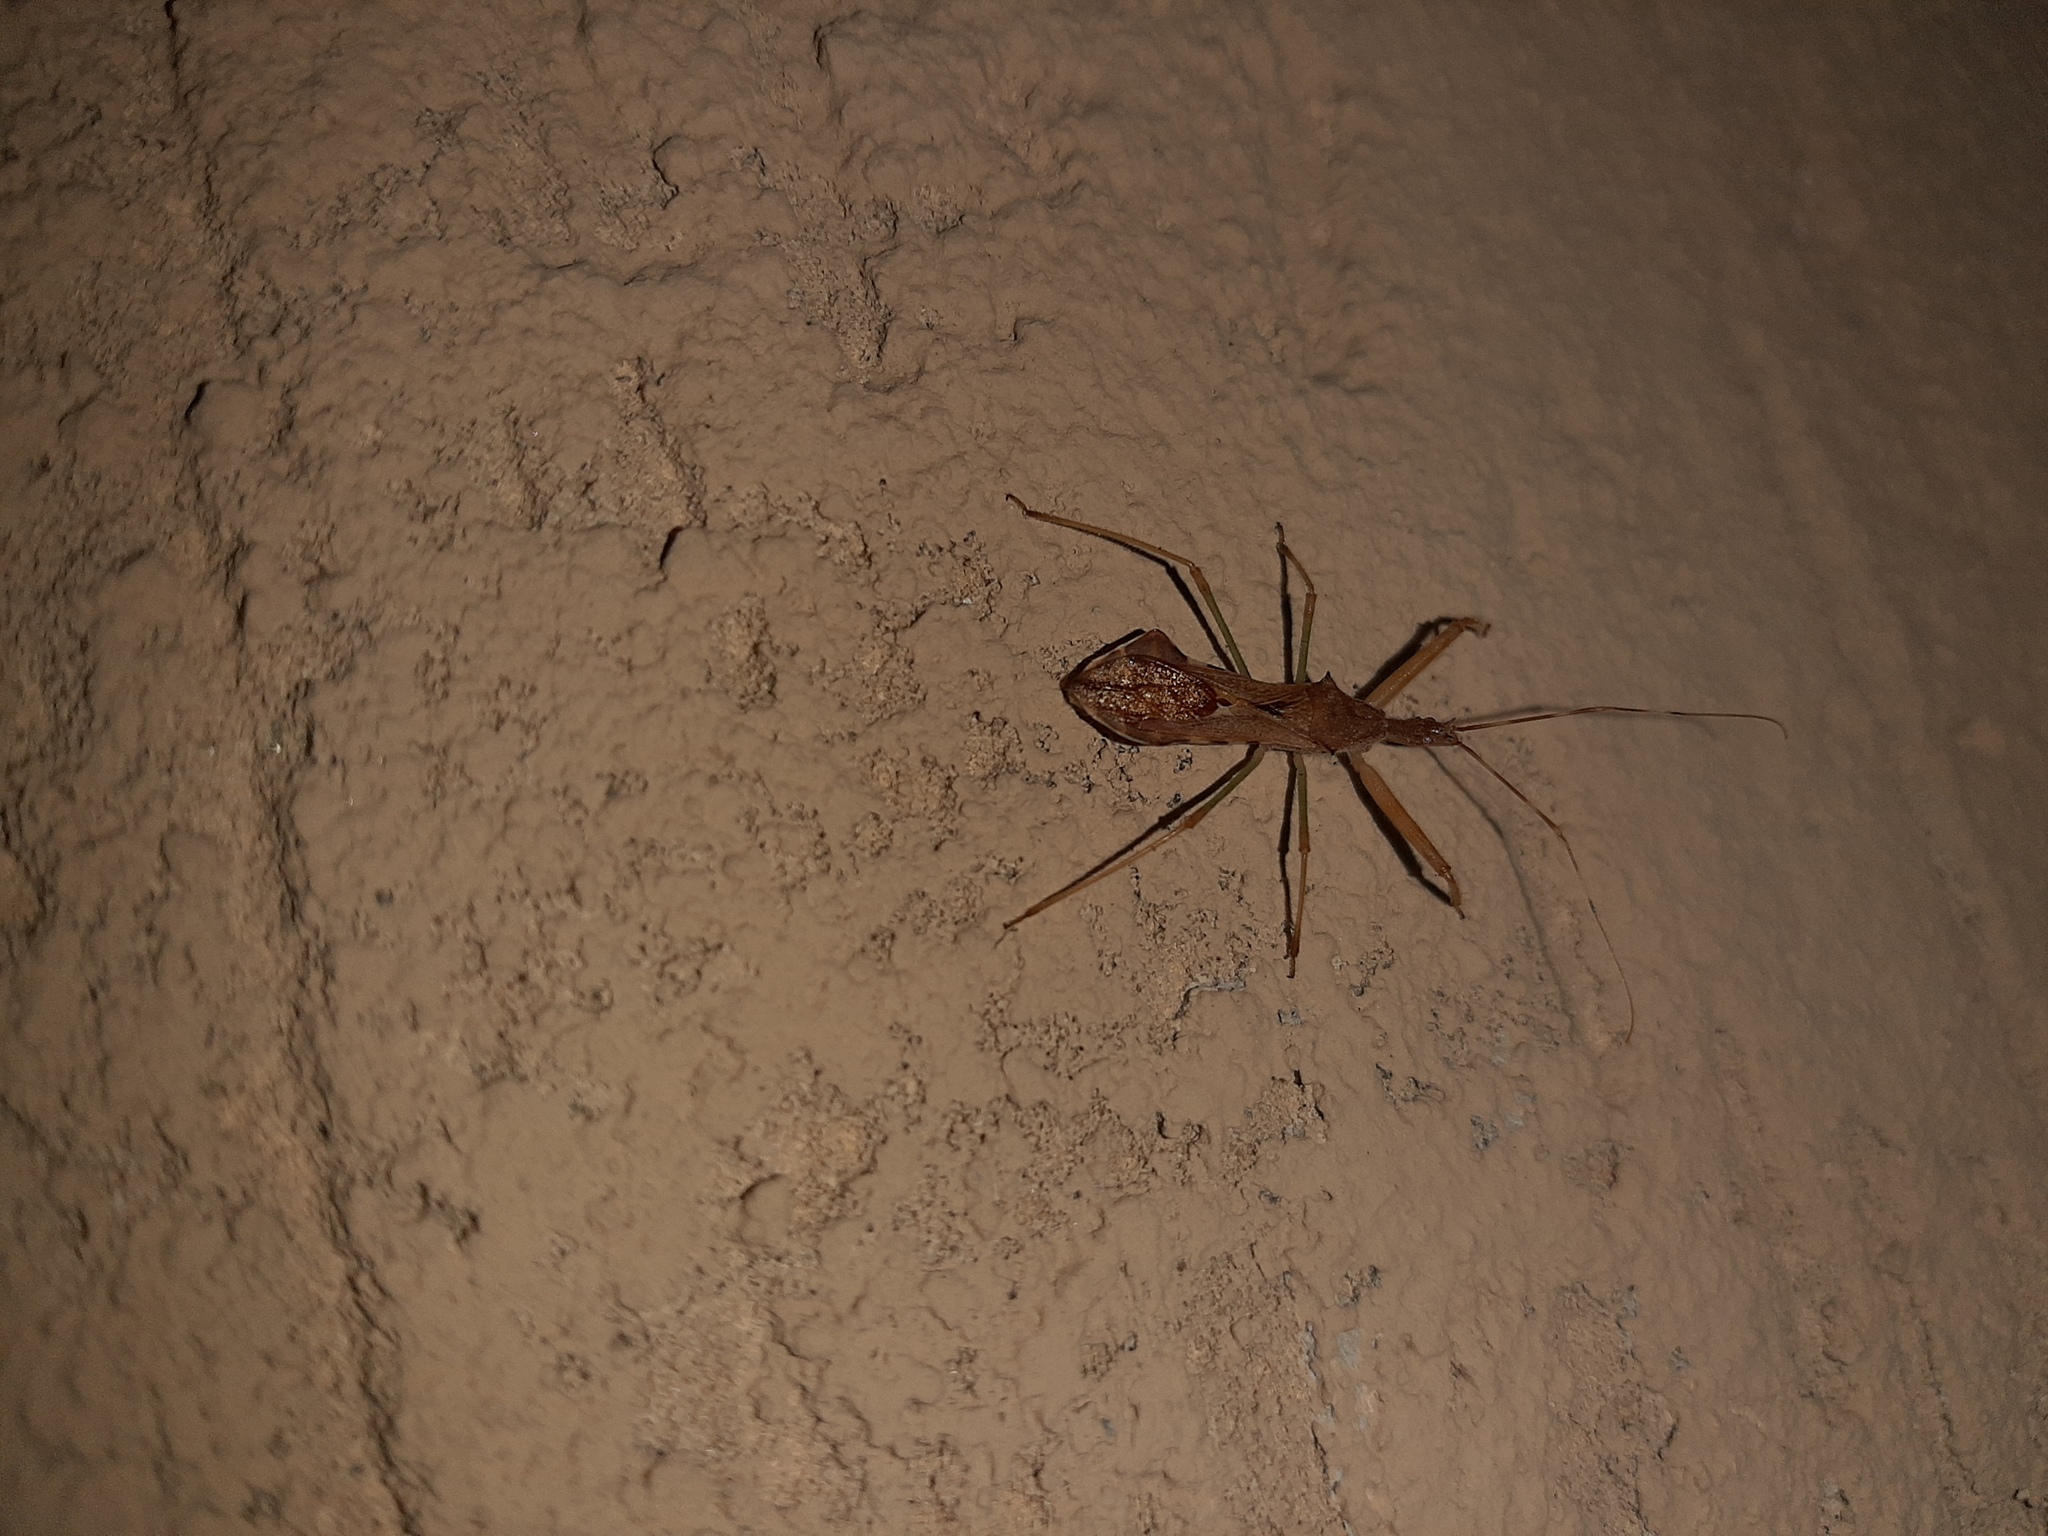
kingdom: Animalia
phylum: Arthropoda
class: Insecta
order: Hemiptera
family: Reduviidae
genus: Nagusta
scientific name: Nagusta goedelii
